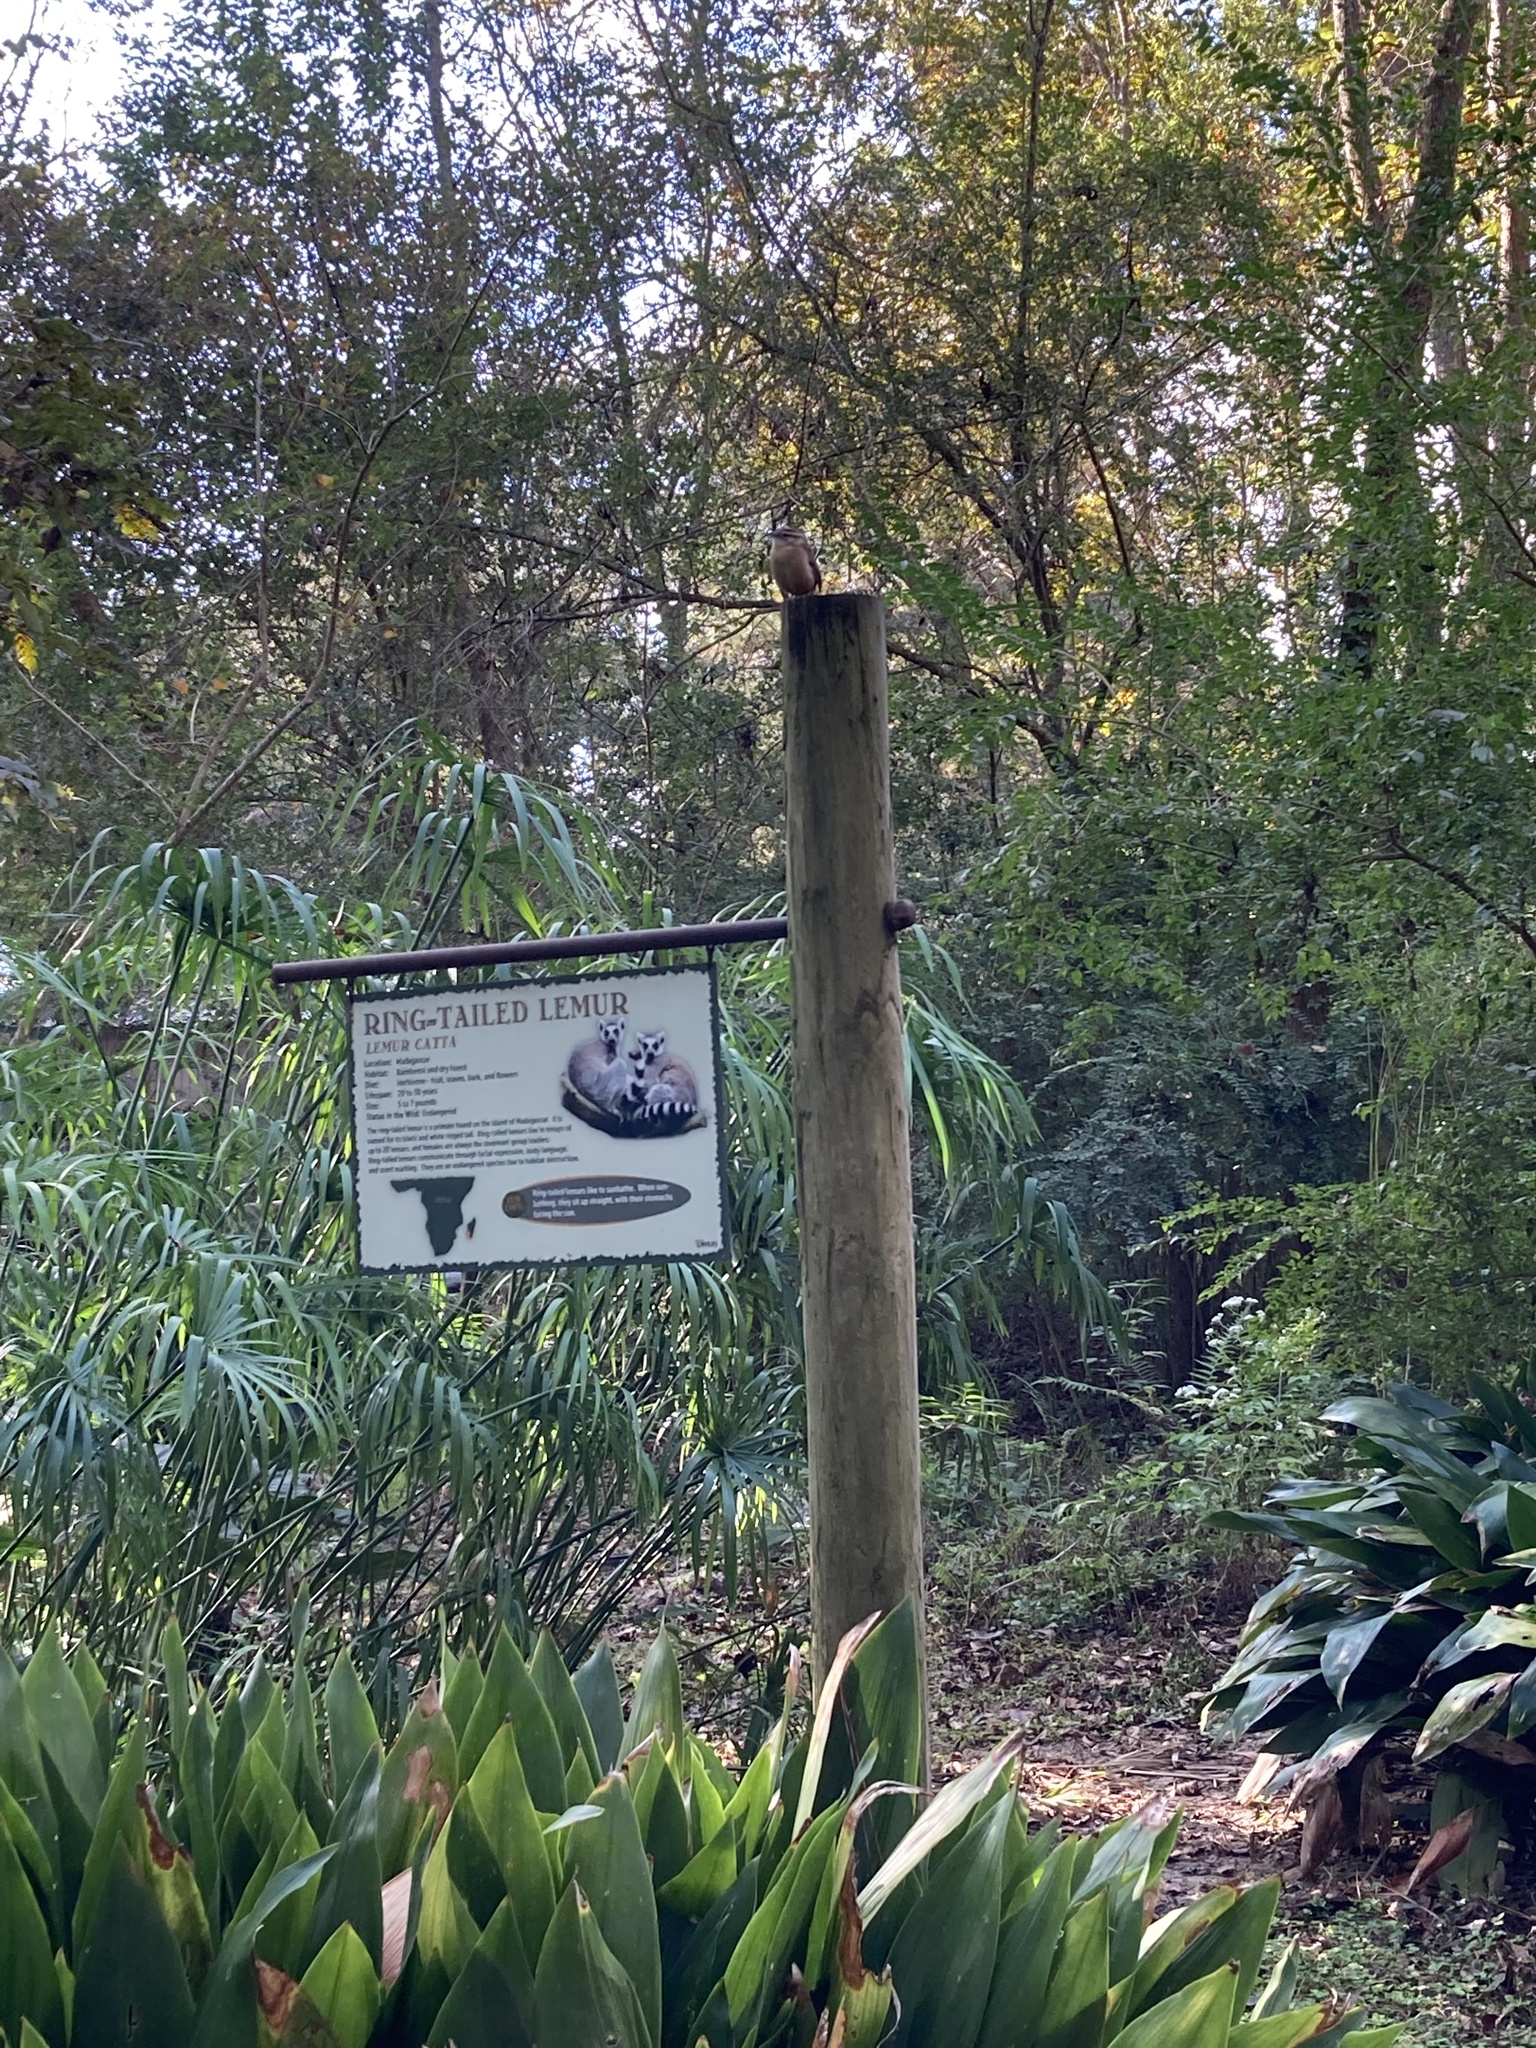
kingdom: Animalia
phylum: Chordata
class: Aves
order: Passeriformes
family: Troglodytidae
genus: Thryothorus
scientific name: Thryothorus ludovicianus
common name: Carolina wren
